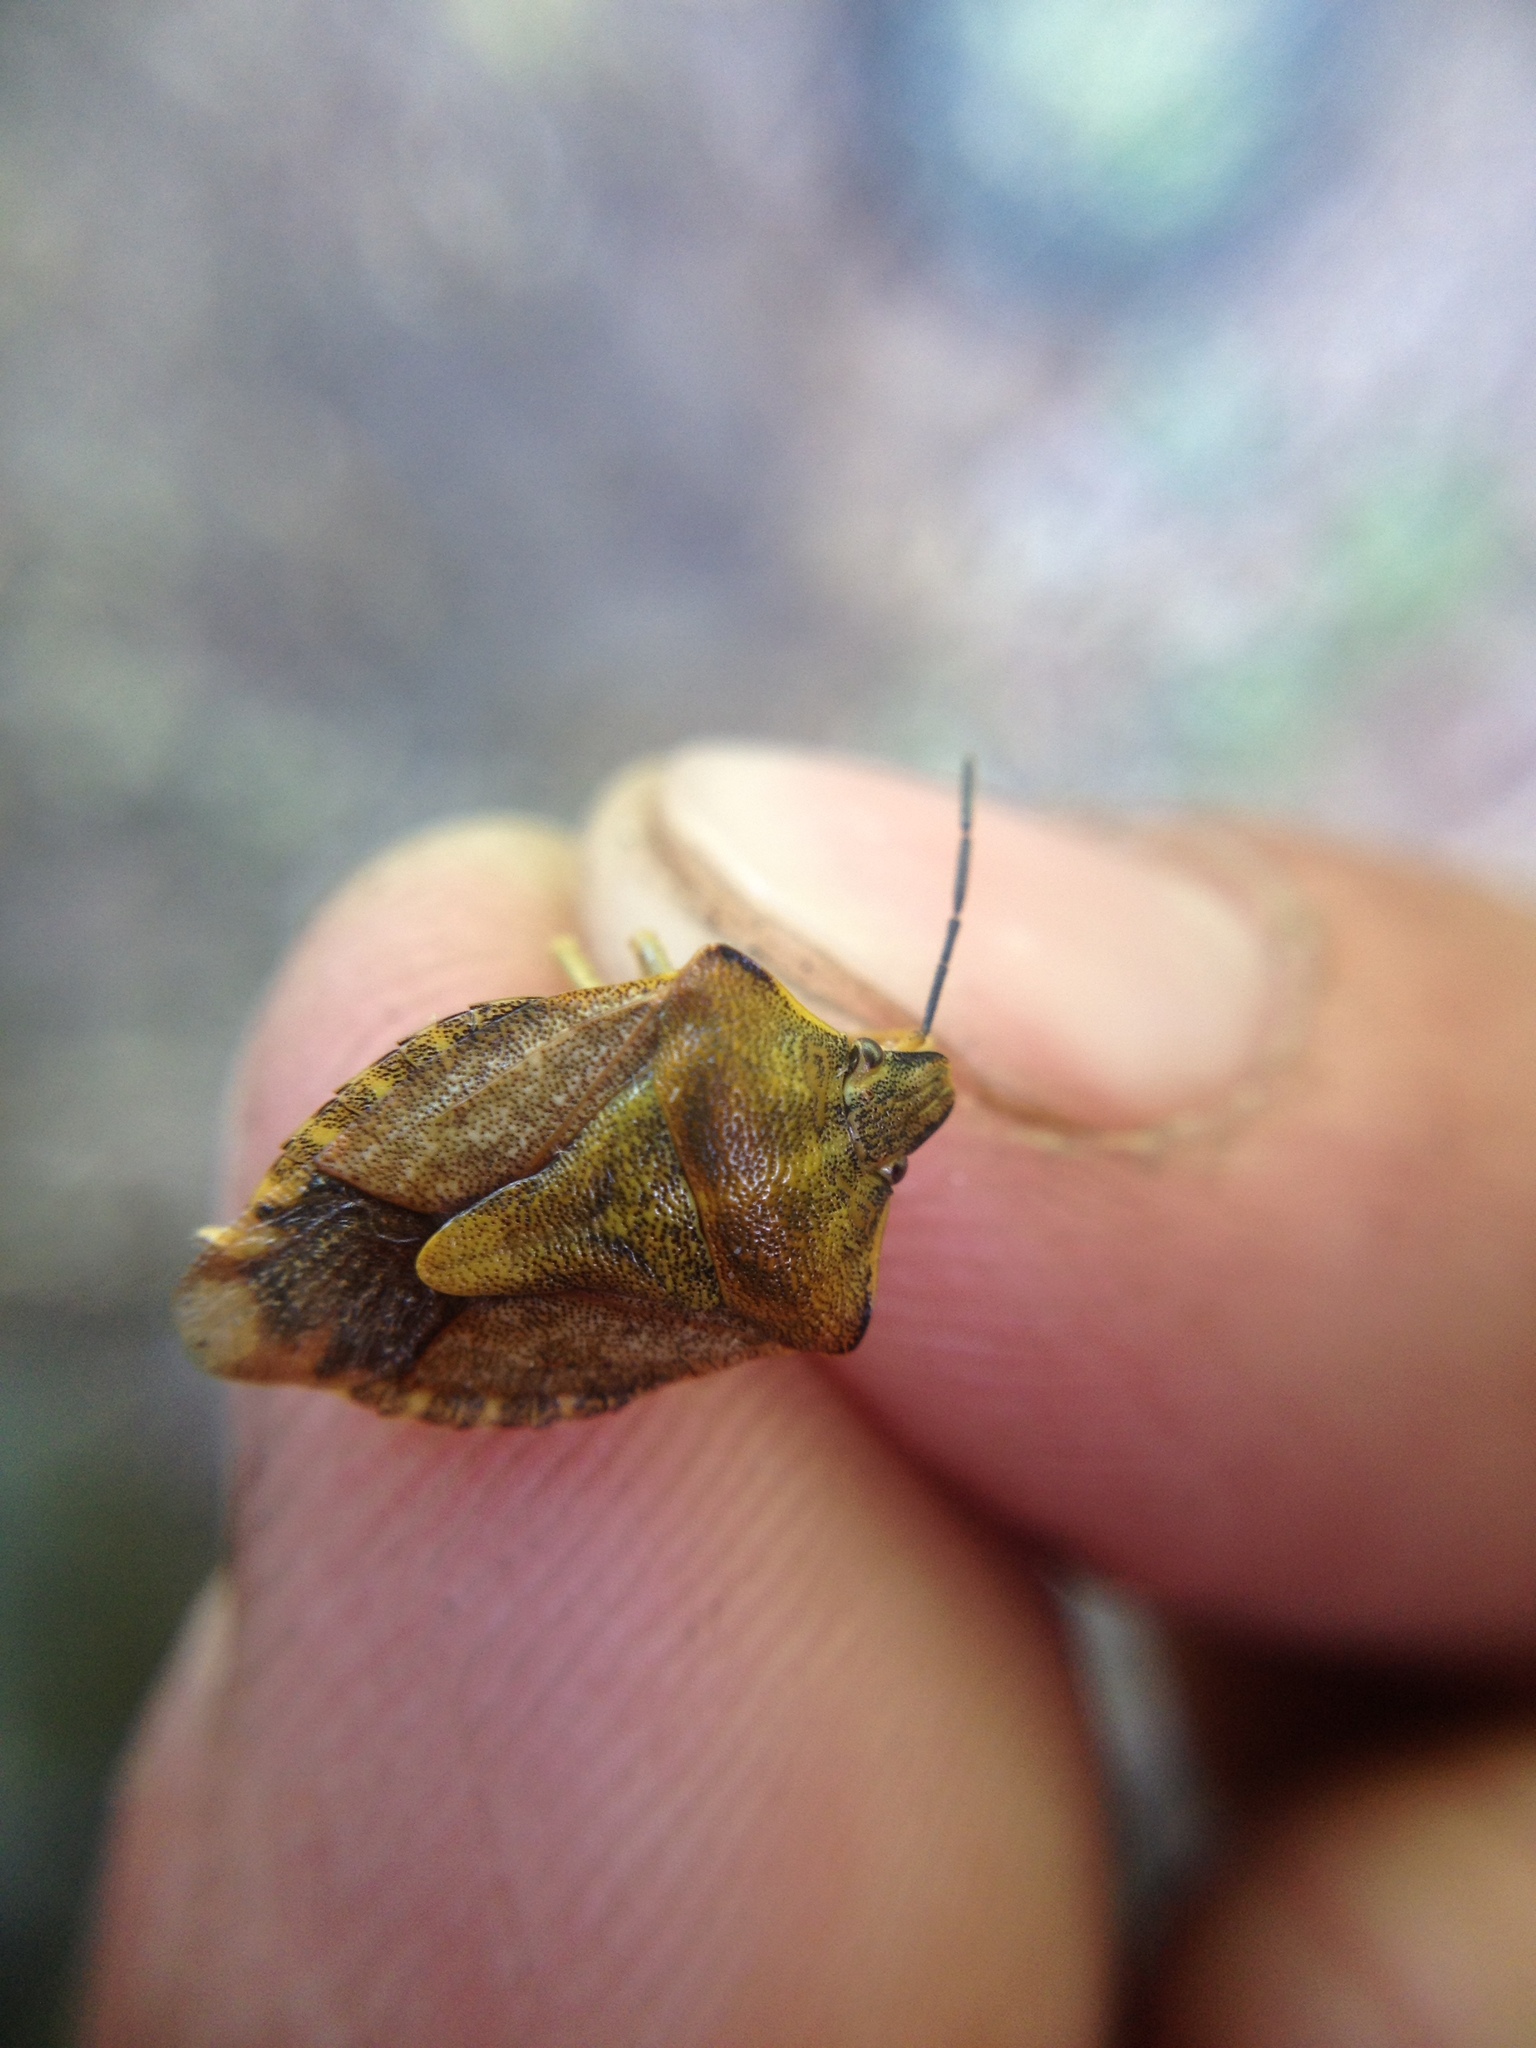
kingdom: Animalia
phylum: Arthropoda
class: Insecta
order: Hemiptera
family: Pentatomidae
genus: Carpocoris
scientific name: Carpocoris purpureipennis
